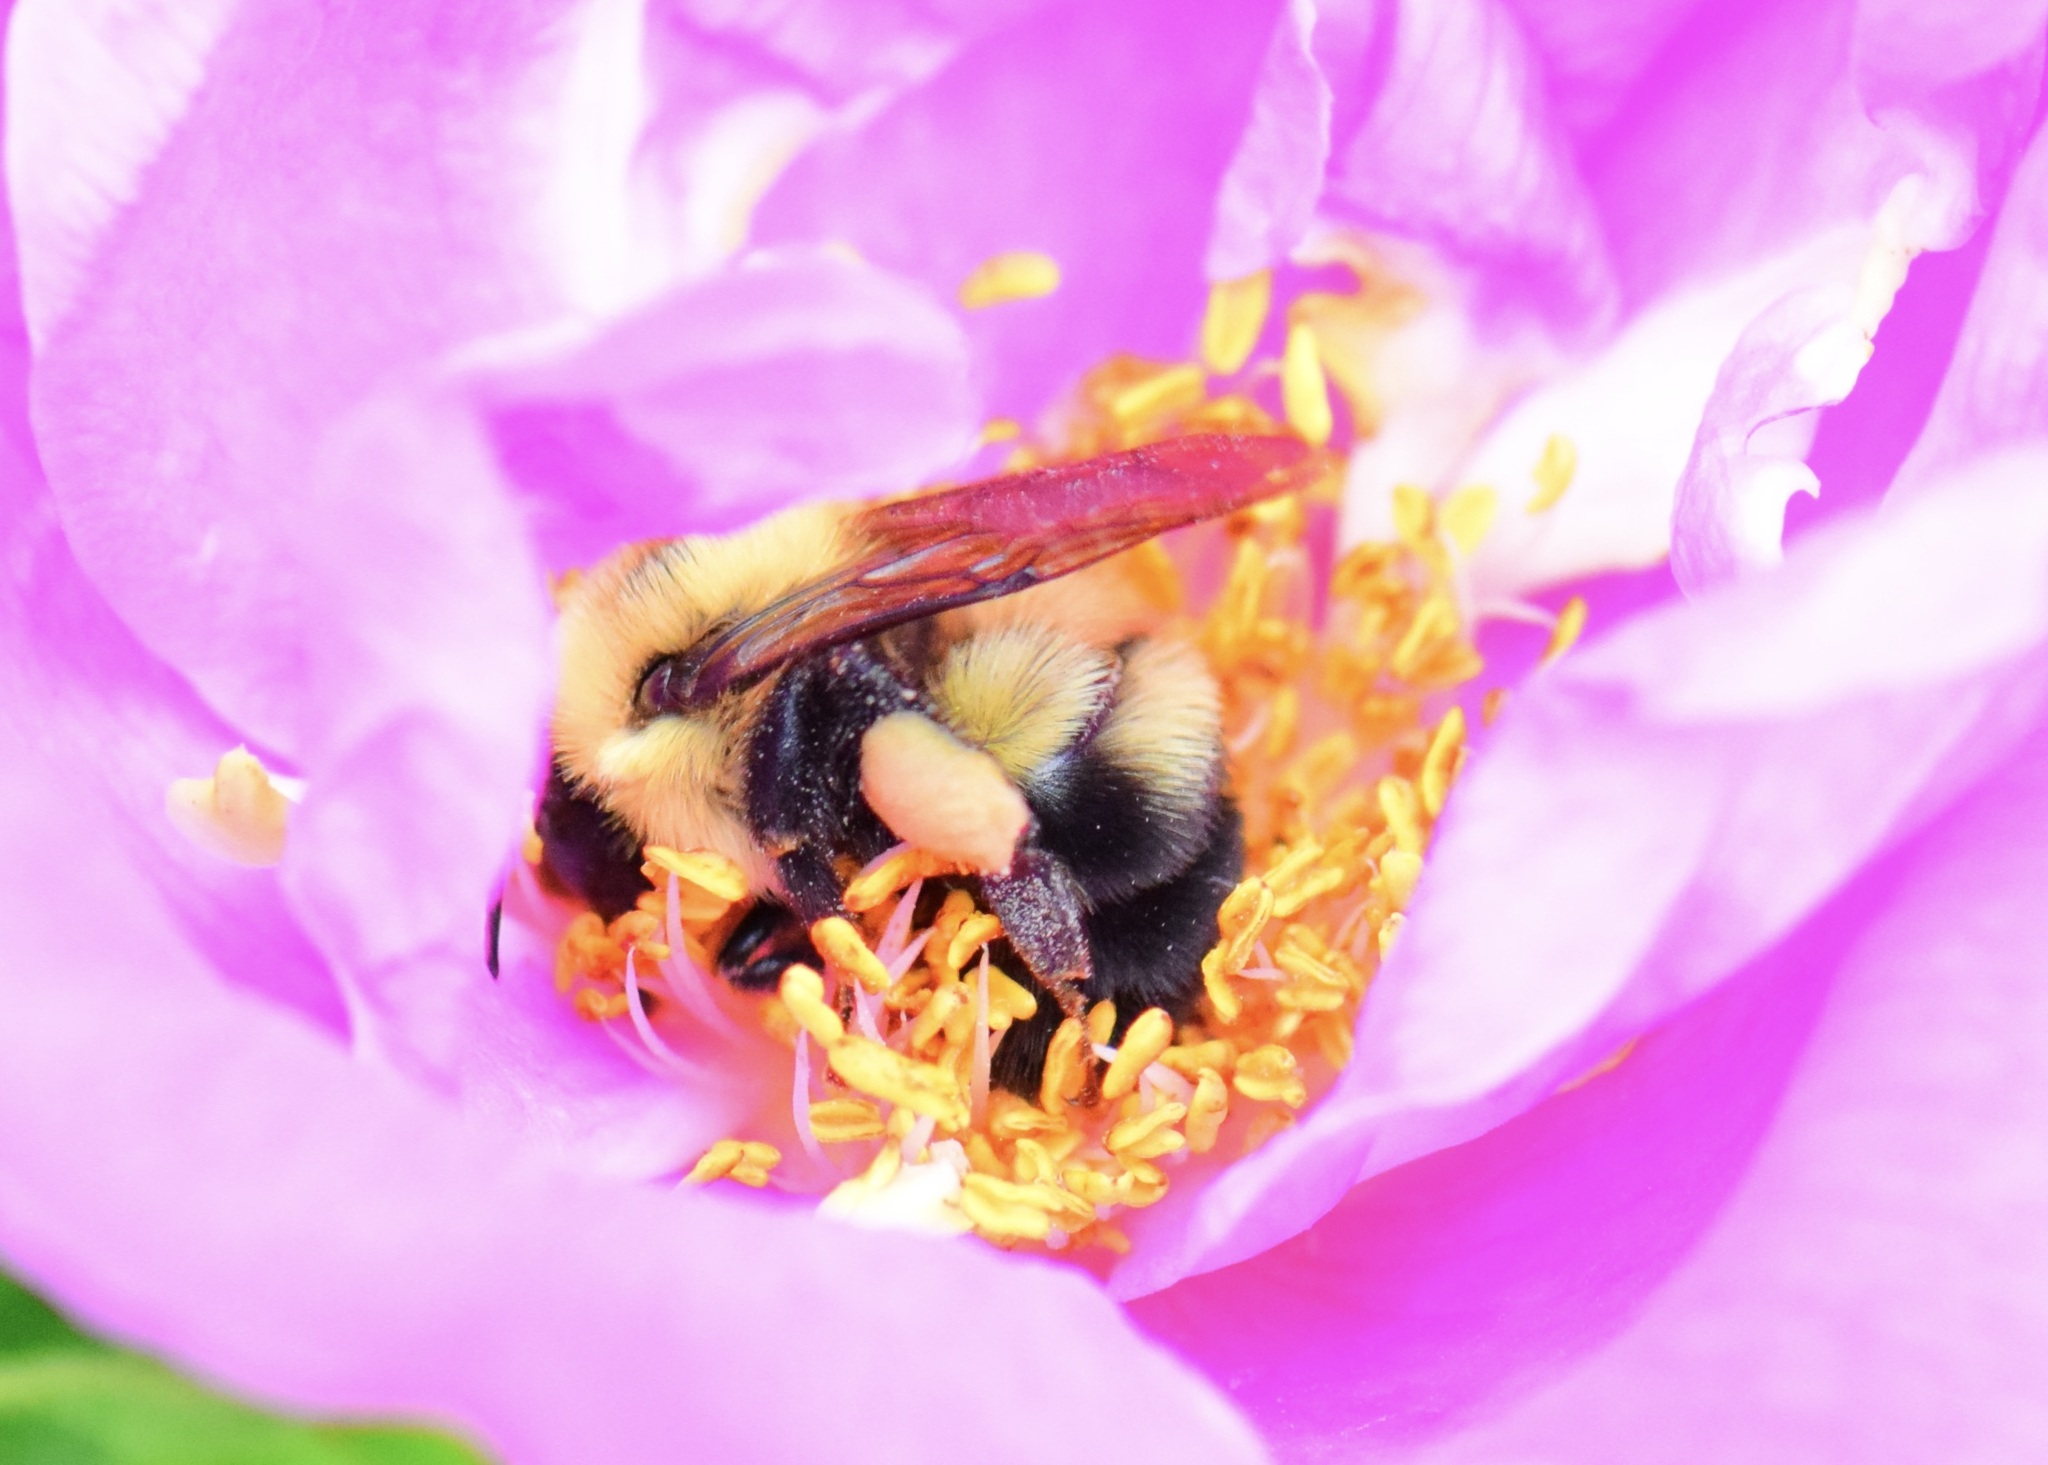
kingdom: Animalia
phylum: Arthropoda
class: Insecta
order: Hymenoptera
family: Apidae
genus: Bombus
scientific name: Bombus bimaculatus
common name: Two-spotted bumble bee
